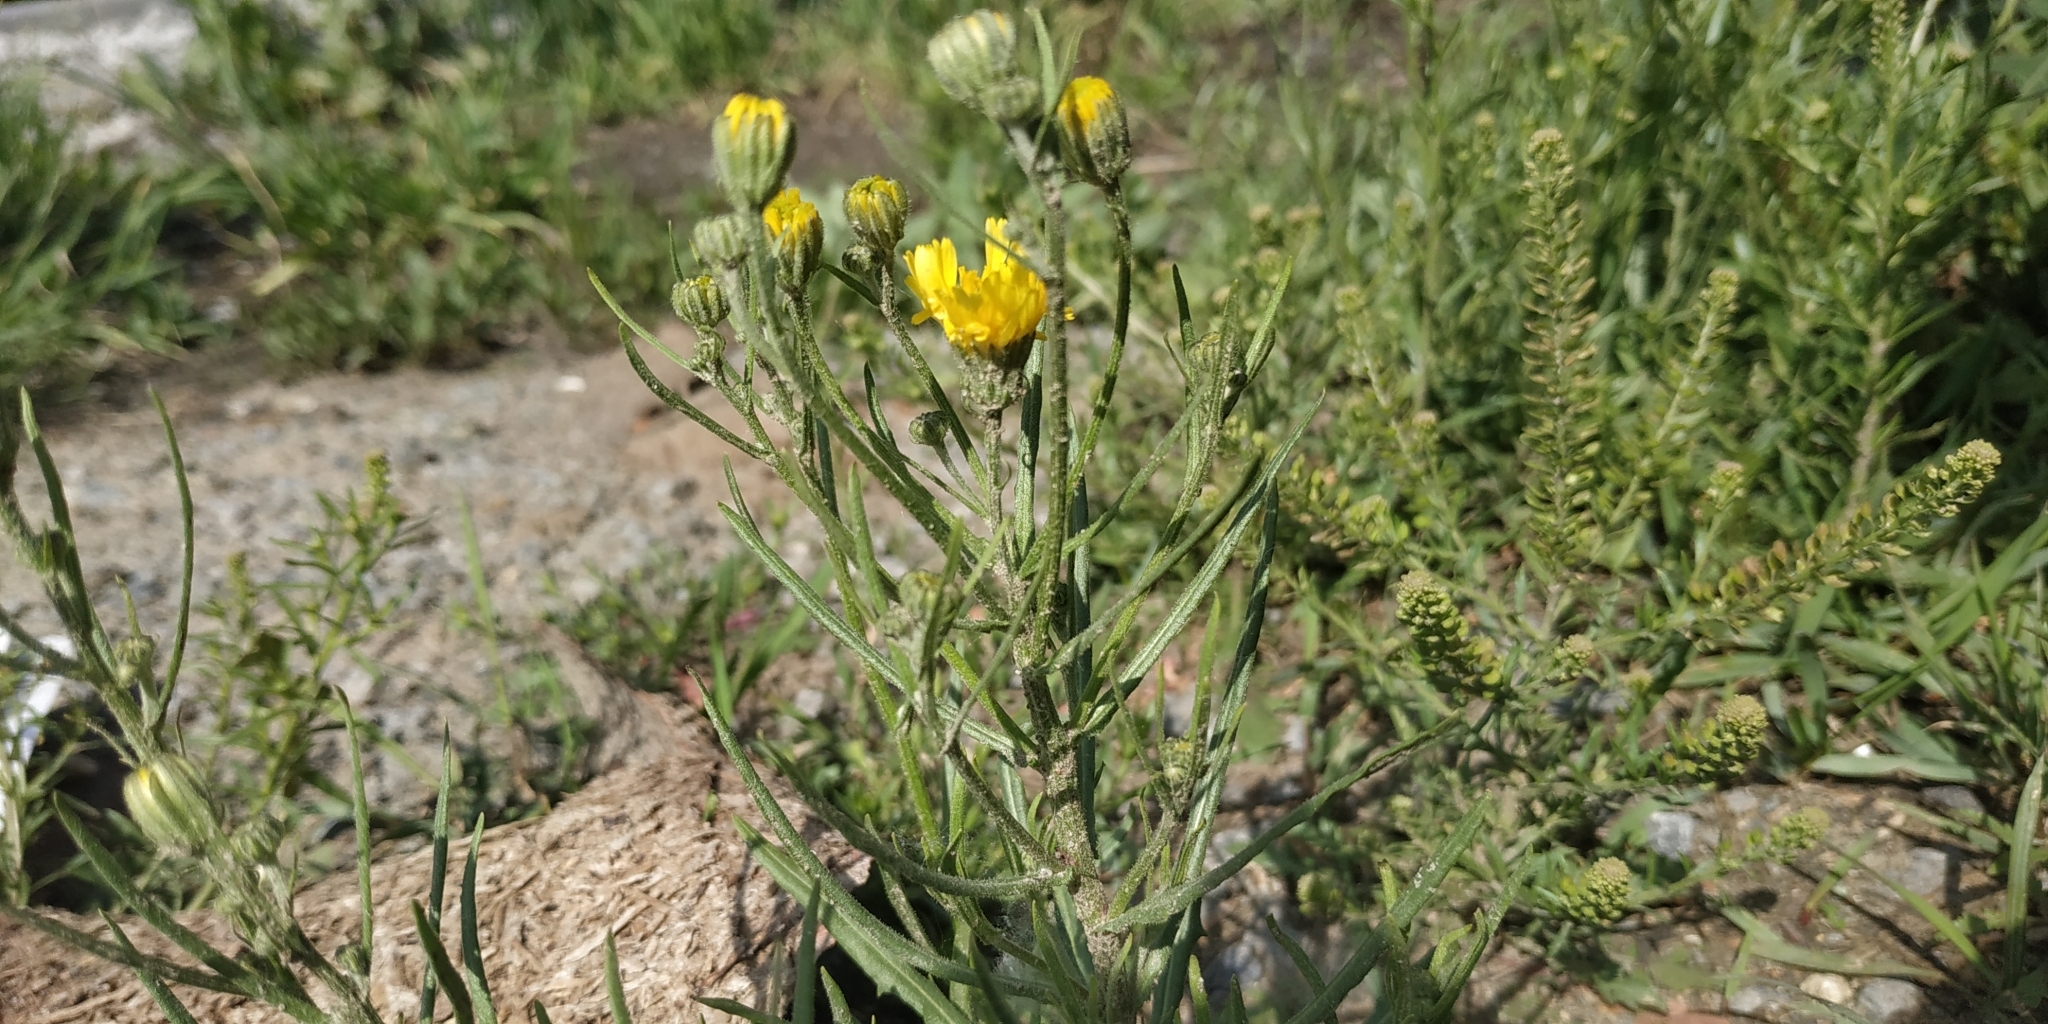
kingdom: Plantae
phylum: Tracheophyta
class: Magnoliopsida
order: Asterales
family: Asteraceae
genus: Crepis
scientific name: Crepis tectorum
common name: Narrow-leaved hawk's-beard
